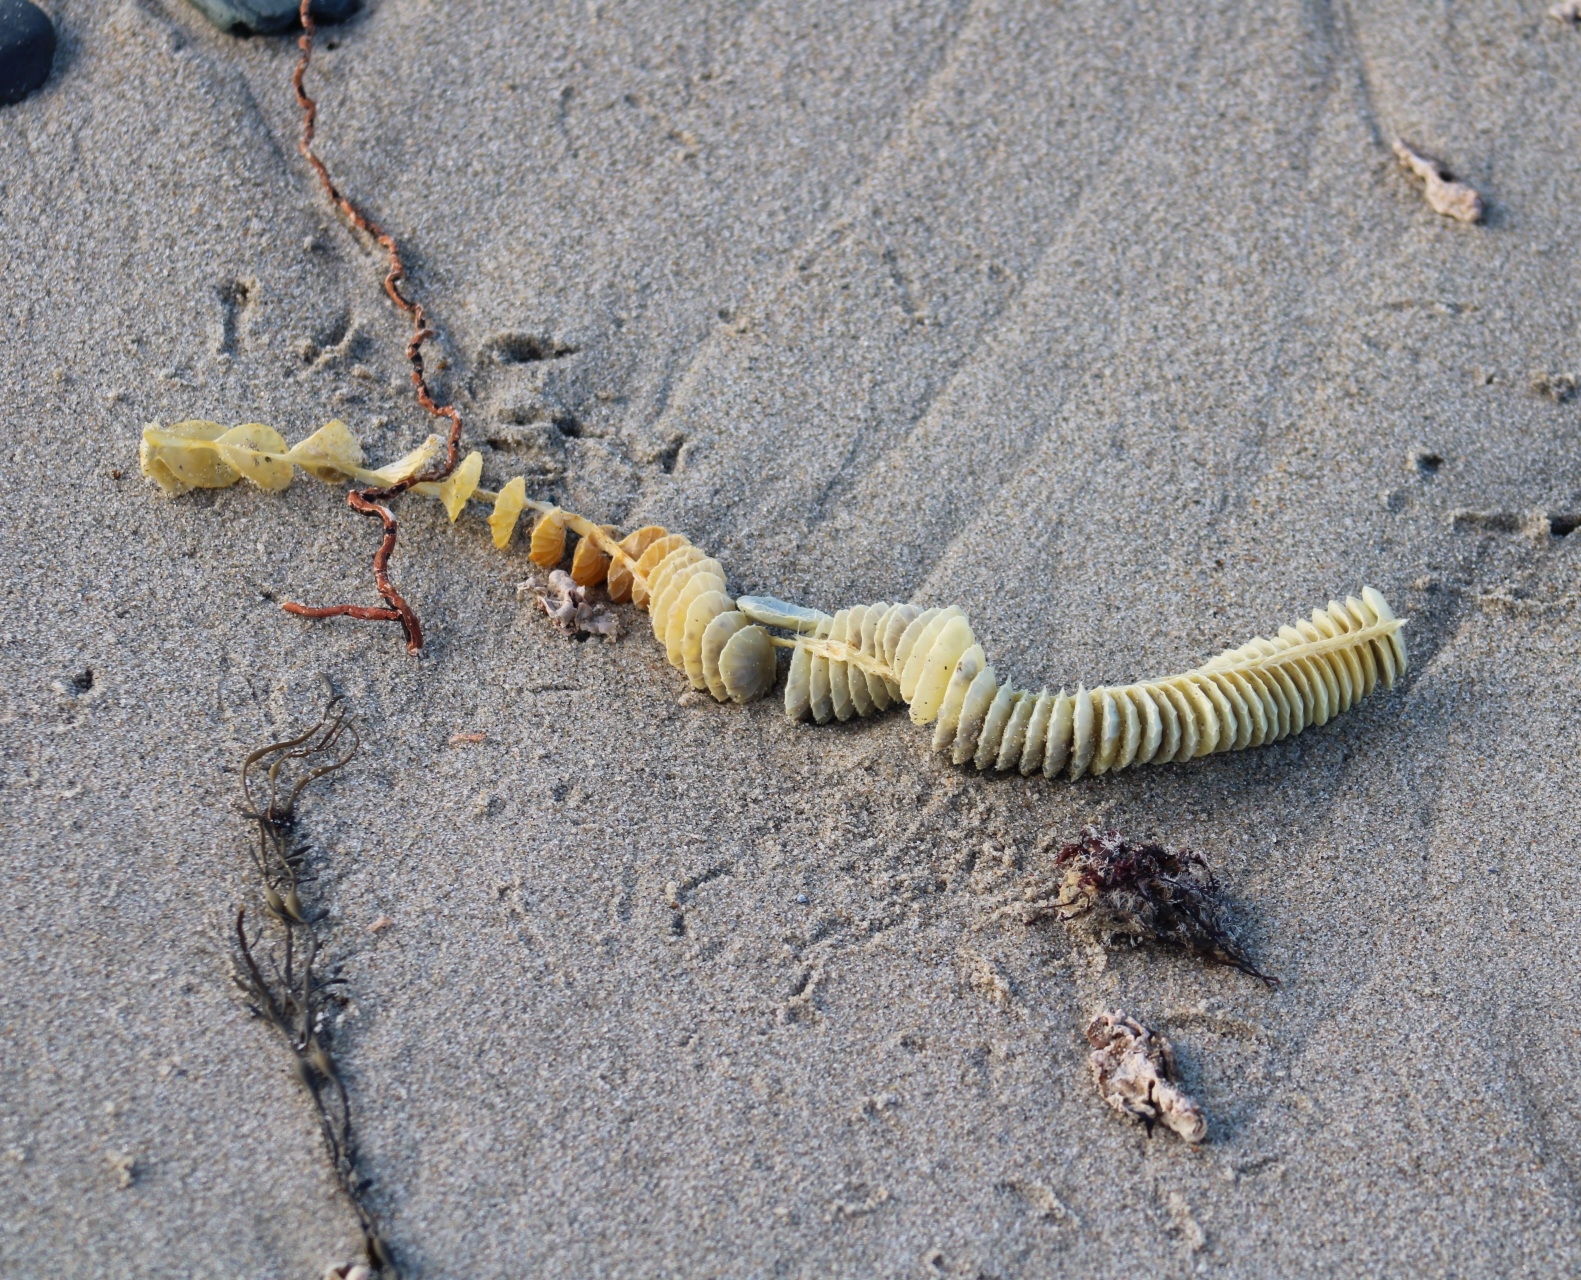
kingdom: Animalia
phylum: Mollusca
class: Gastropoda
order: Neogastropoda
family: Busyconidae
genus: Busycotypus
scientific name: Busycotypus canaliculatus
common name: Channeled whelk
